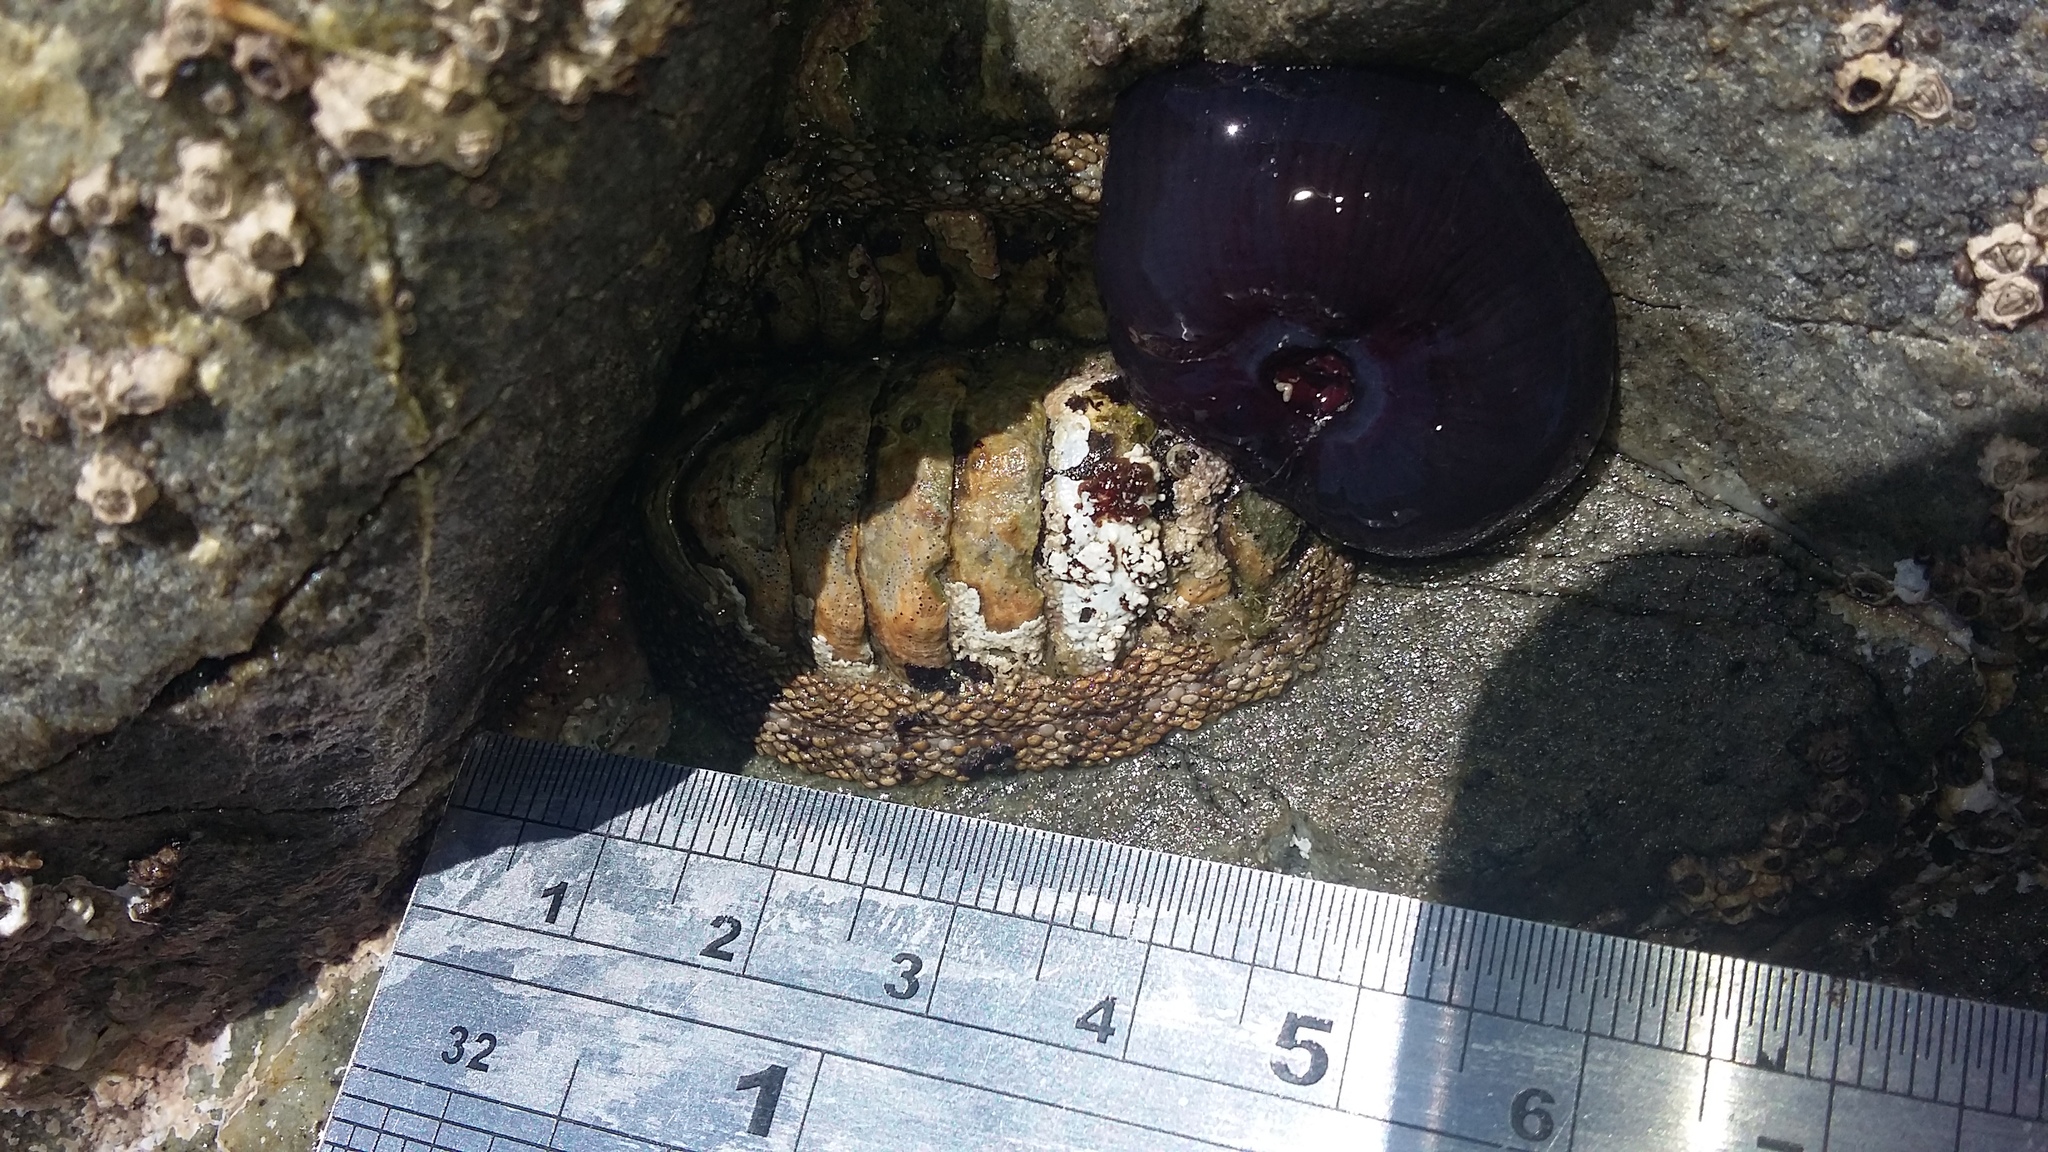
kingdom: Animalia
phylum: Mollusca
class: Polyplacophora
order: Chitonida
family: Chitonidae
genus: Sypharochiton
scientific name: Sypharochiton pelliserpentis
